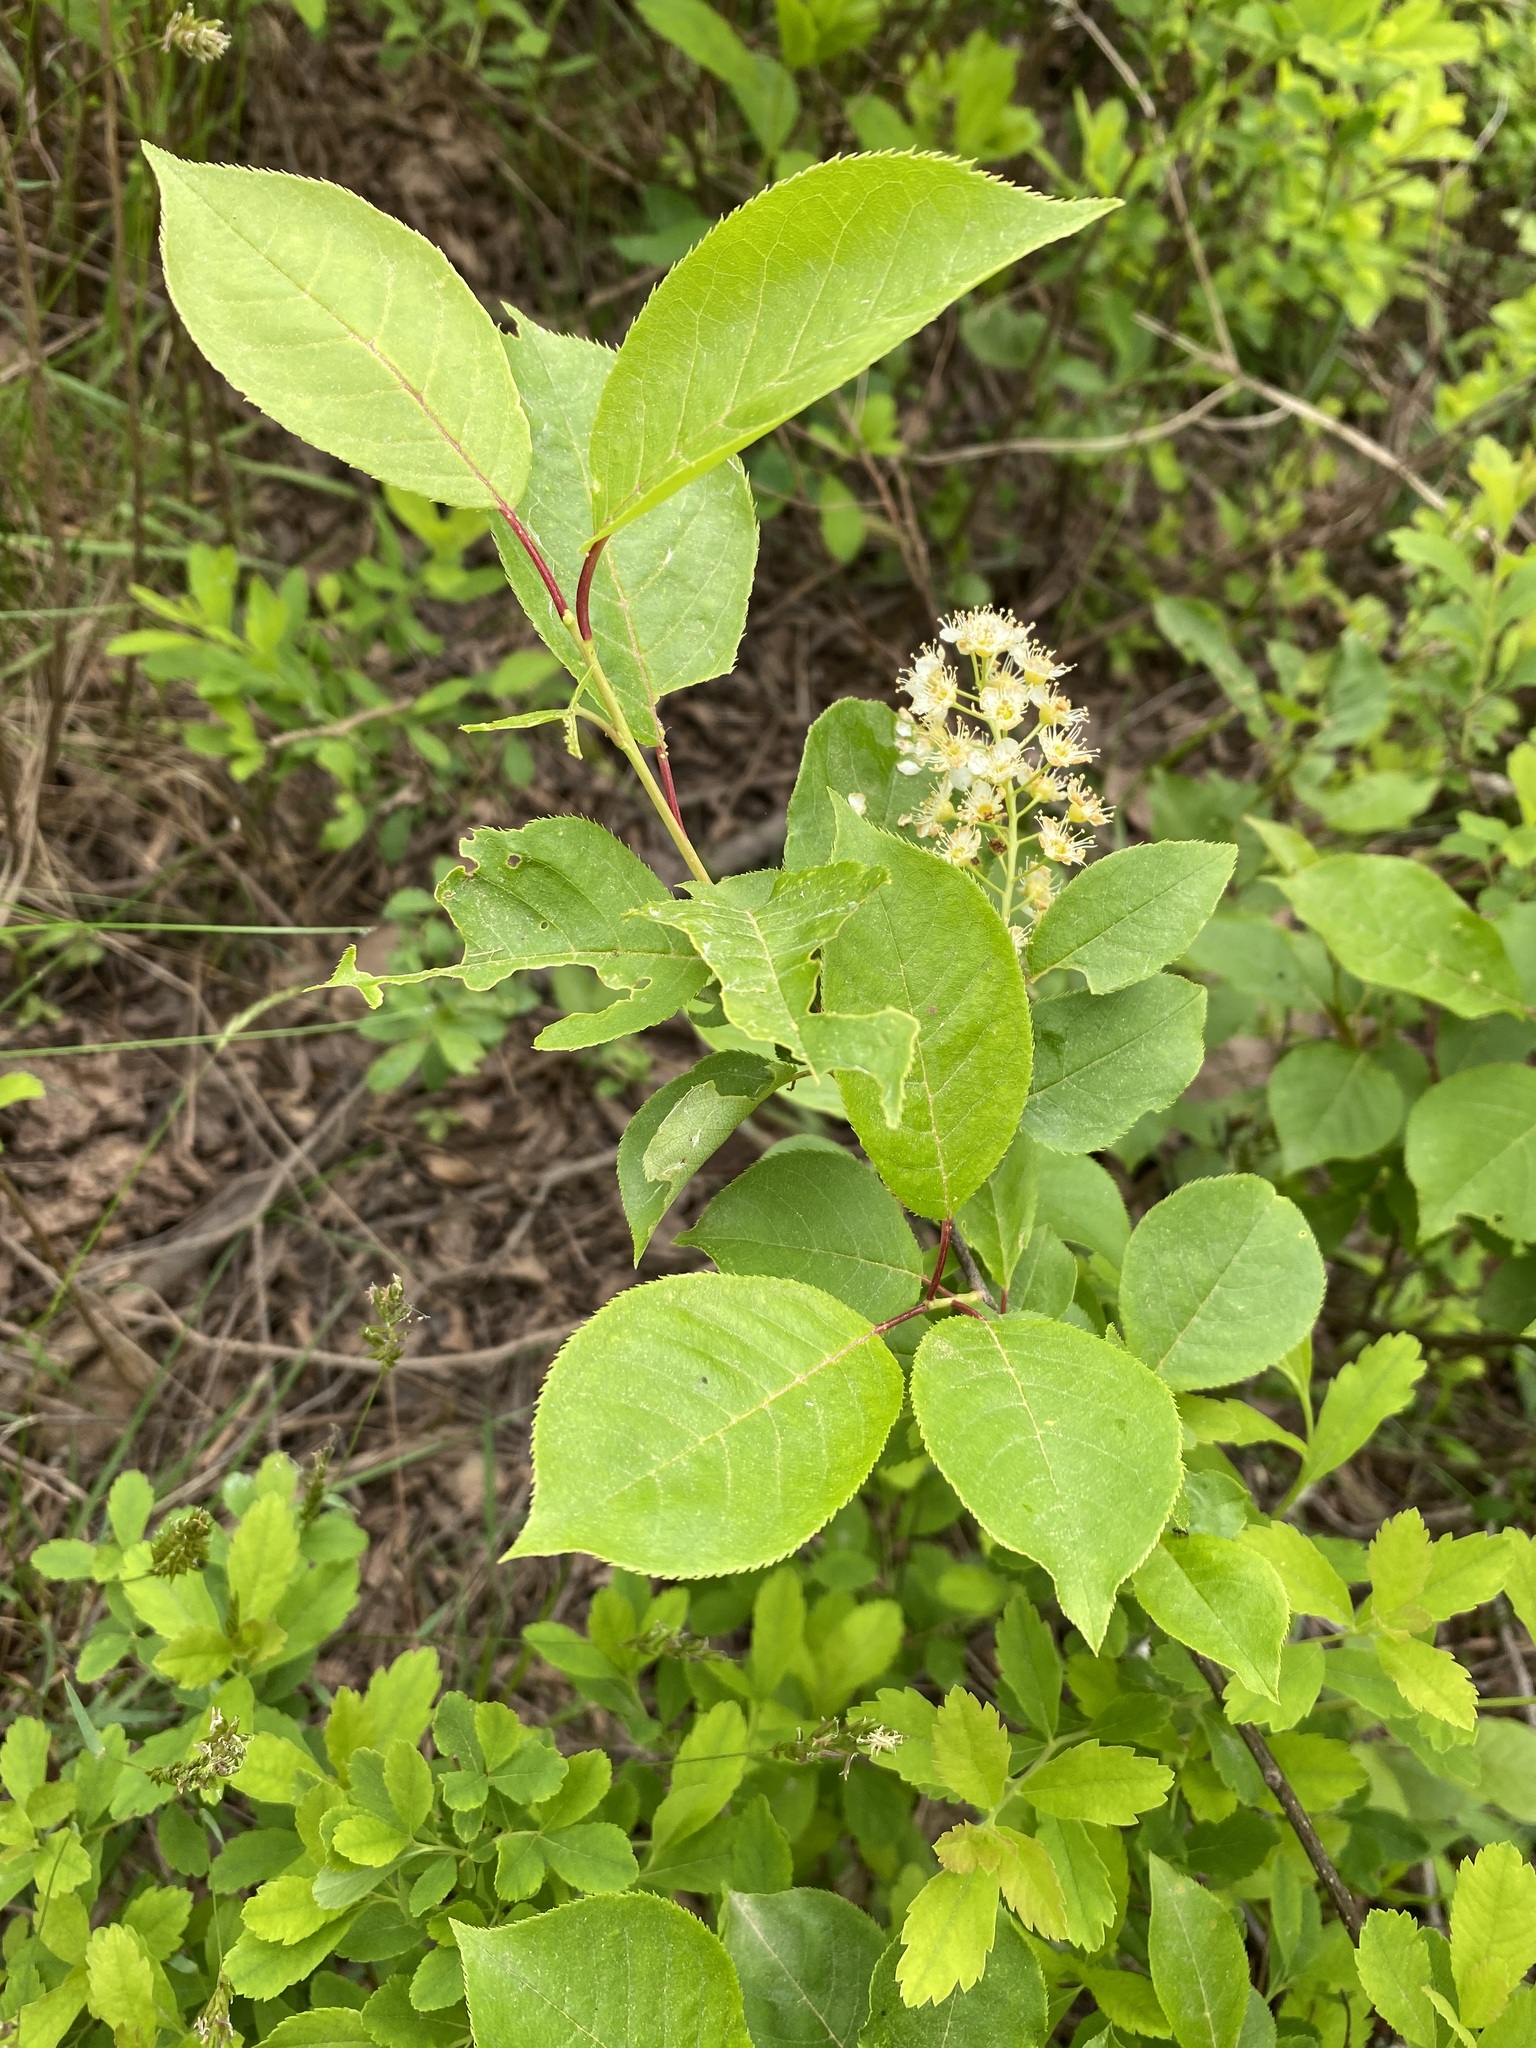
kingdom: Plantae
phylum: Tracheophyta
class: Magnoliopsida
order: Rosales
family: Rosaceae
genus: Prunus
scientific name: Prunus virginiana
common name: Chokecherry
